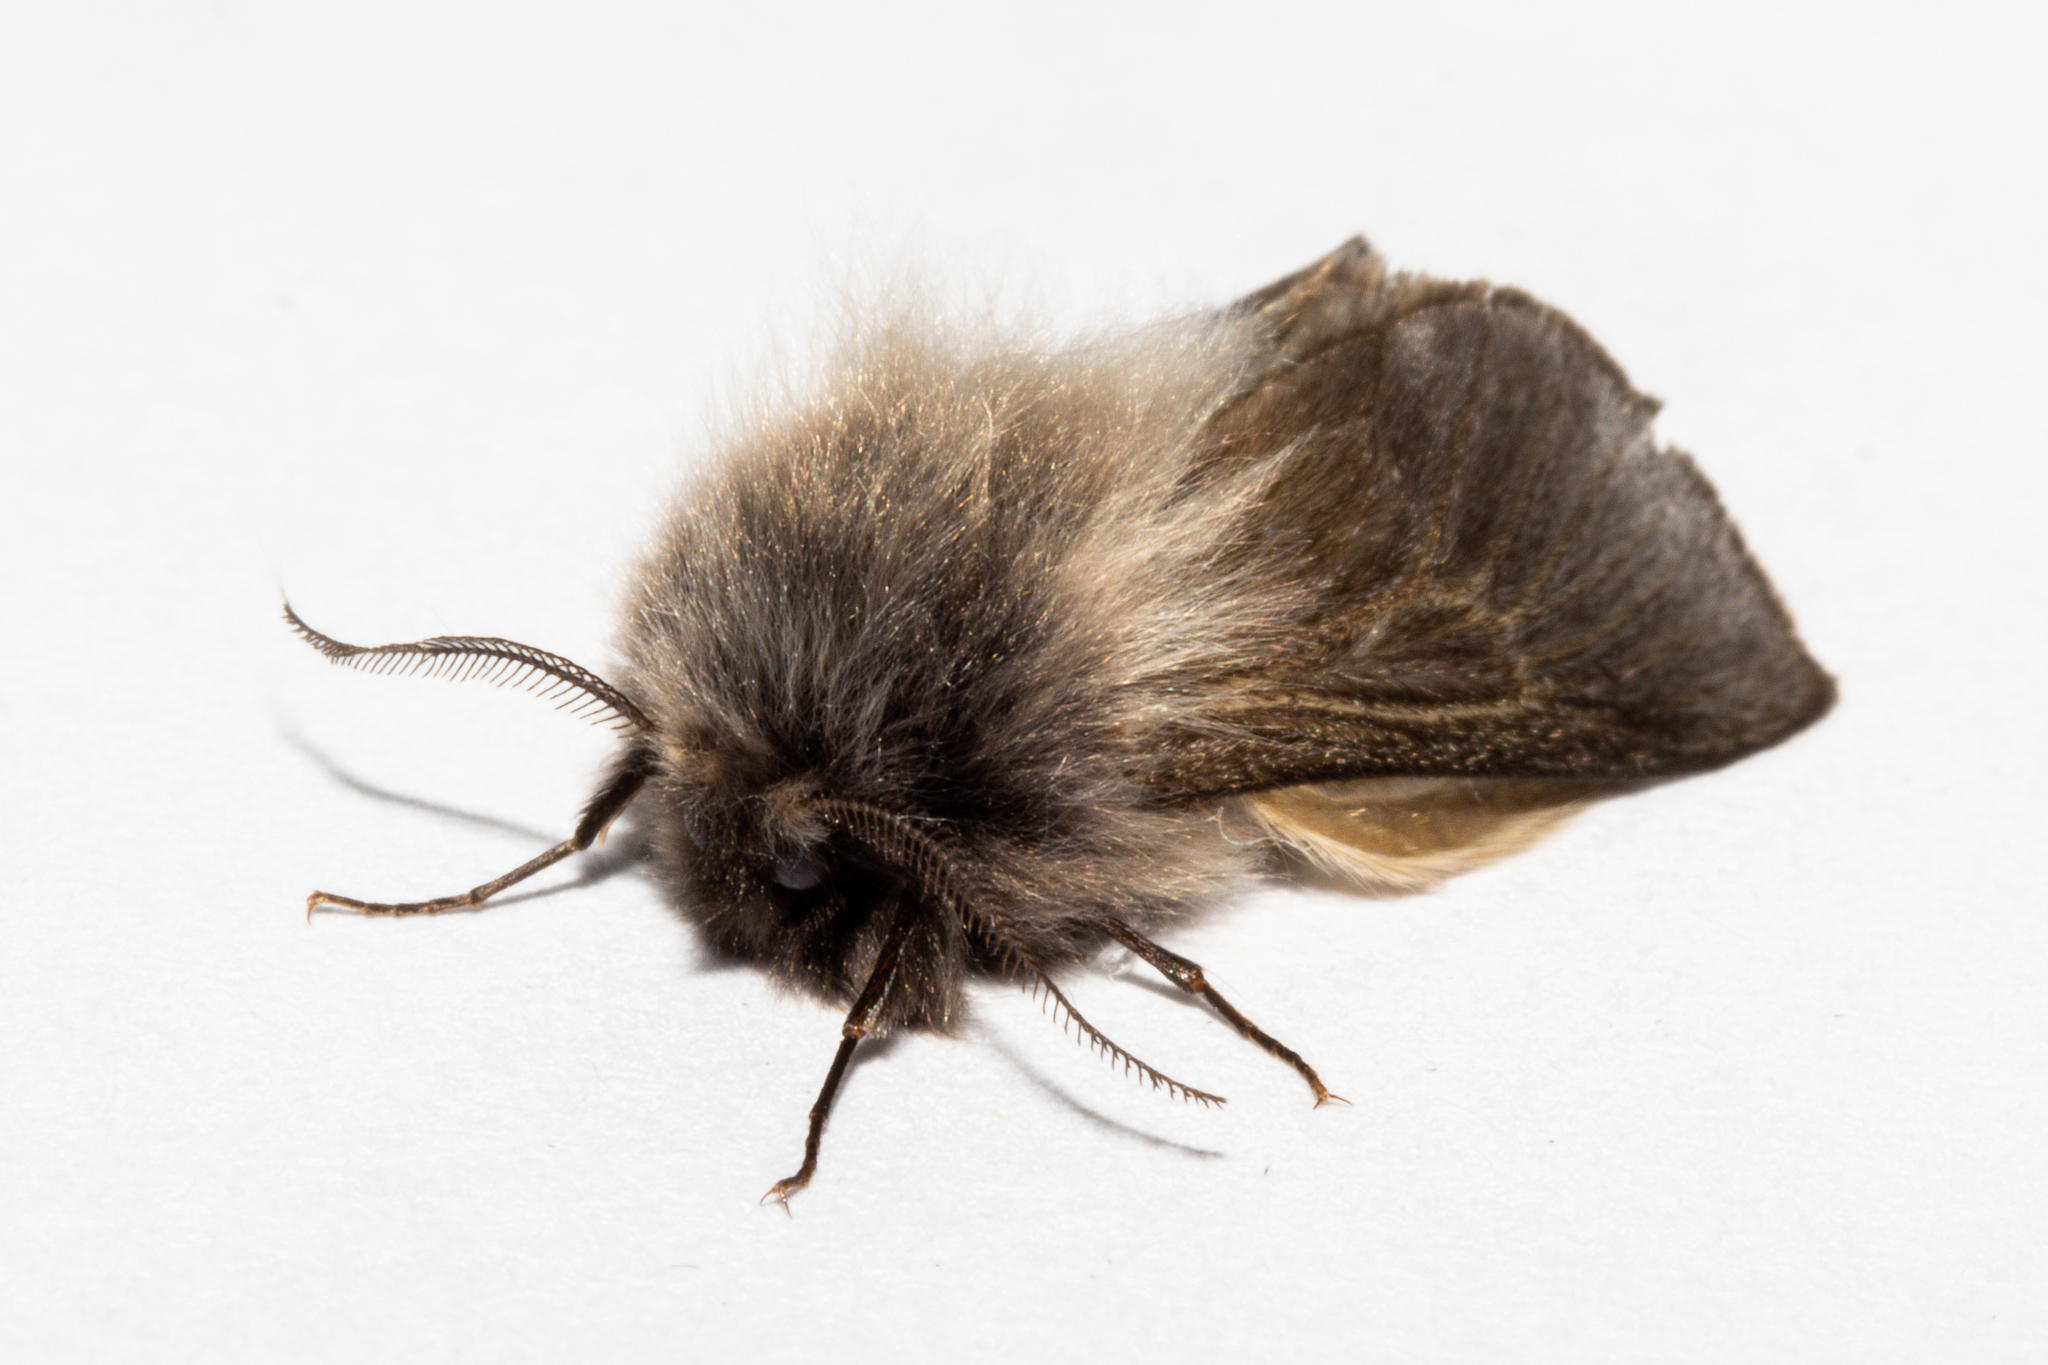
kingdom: Animalia
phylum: Arthropoda
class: Insecta
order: Lepidoptera
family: Psychidae
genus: Orophora
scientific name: Orophora unicolor
